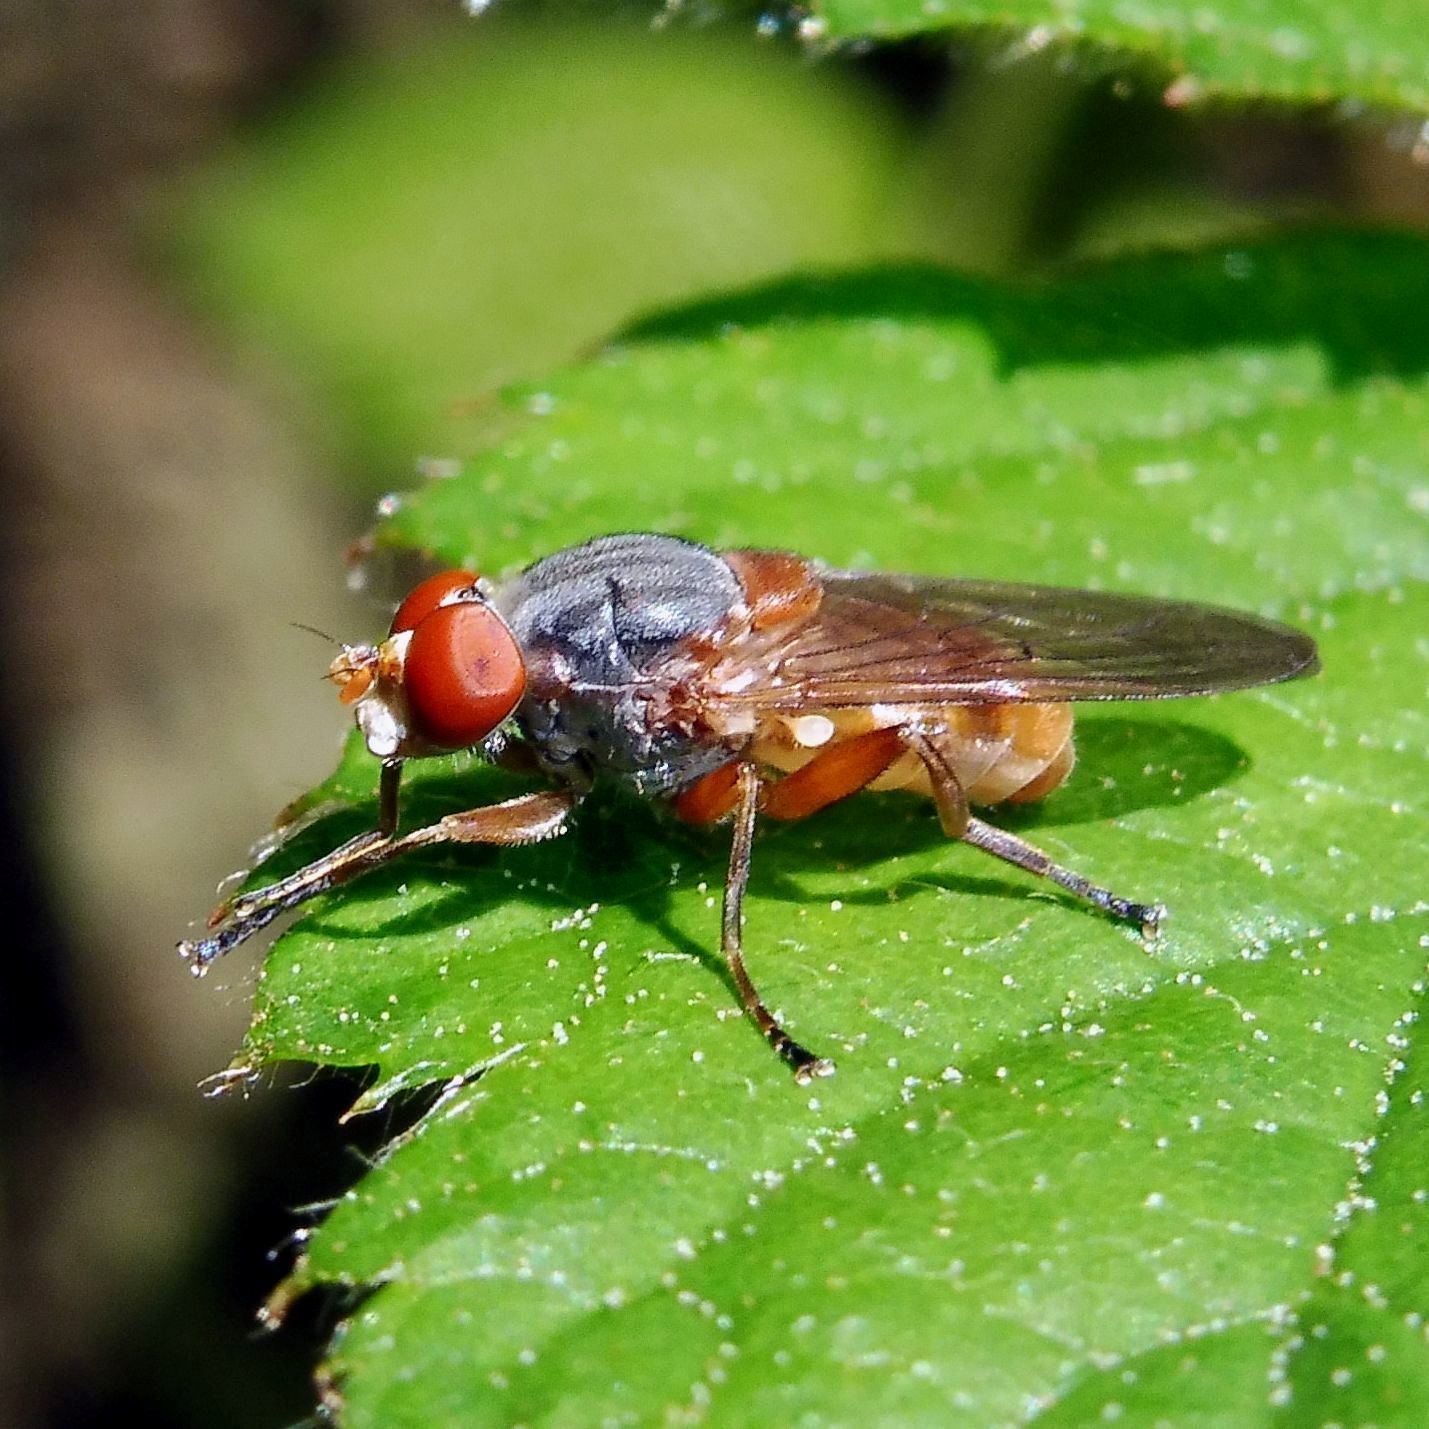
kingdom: Animalia
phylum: Arthropoda
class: Insecta
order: Diptera
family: Syrphidae
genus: Brachyopa
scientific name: Brachyopa scutellaris
